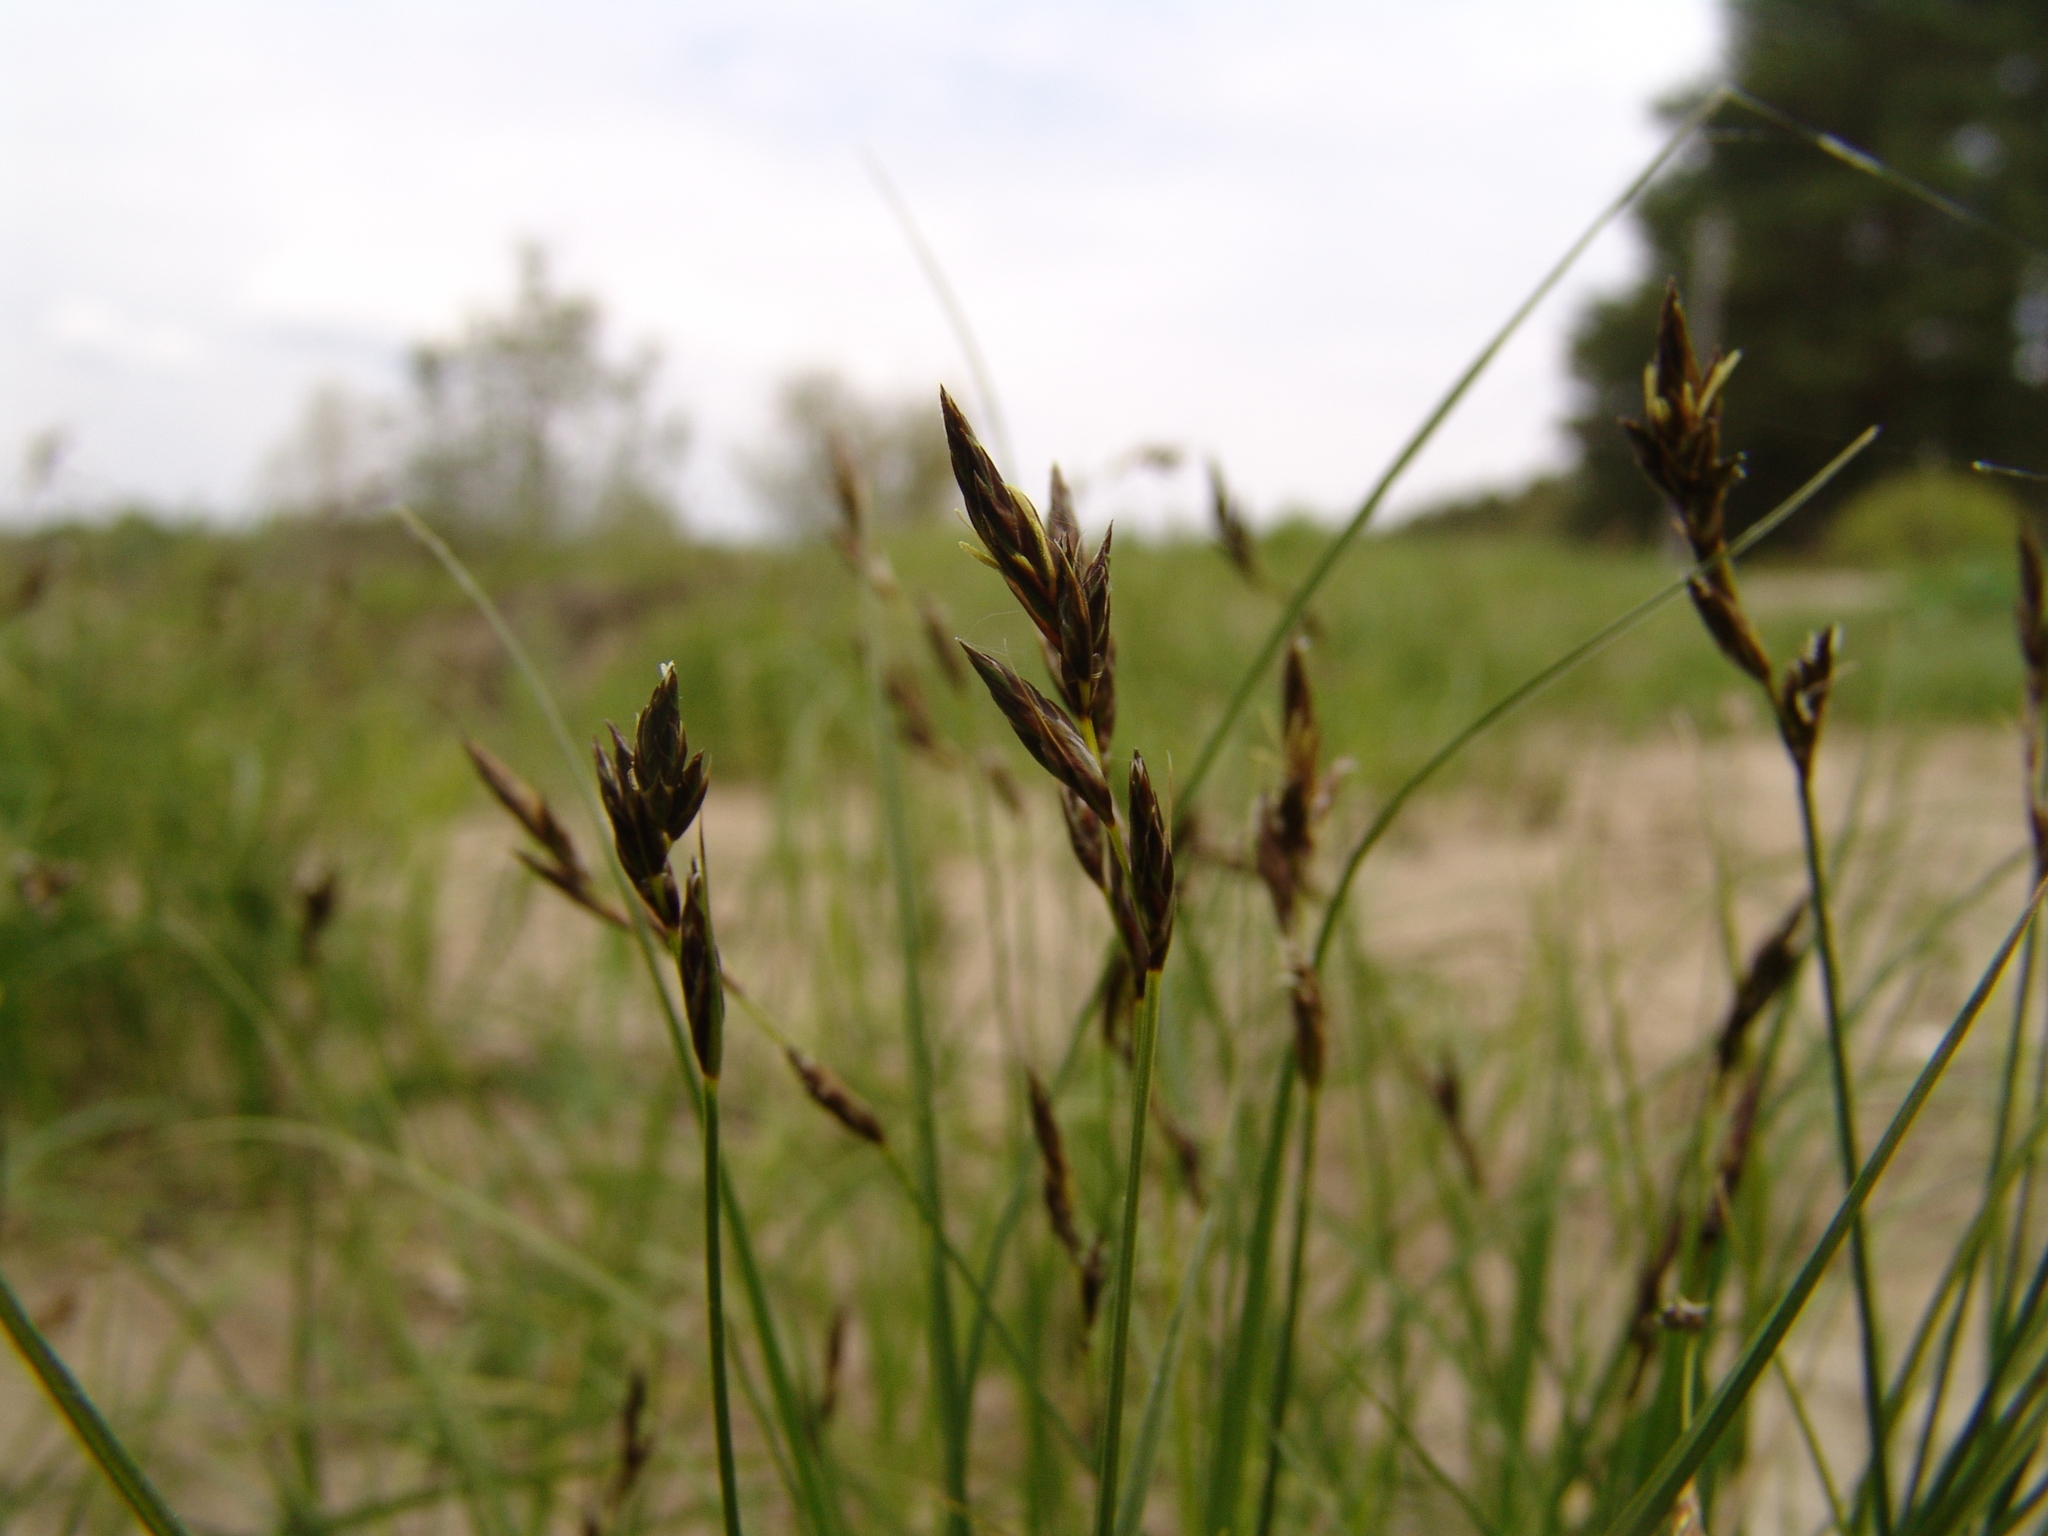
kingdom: Plantae
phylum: Tracheophyta
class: Liliopsida
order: Poales
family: Cyperaceae
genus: Carex
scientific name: Carex praecox
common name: Early sedge
